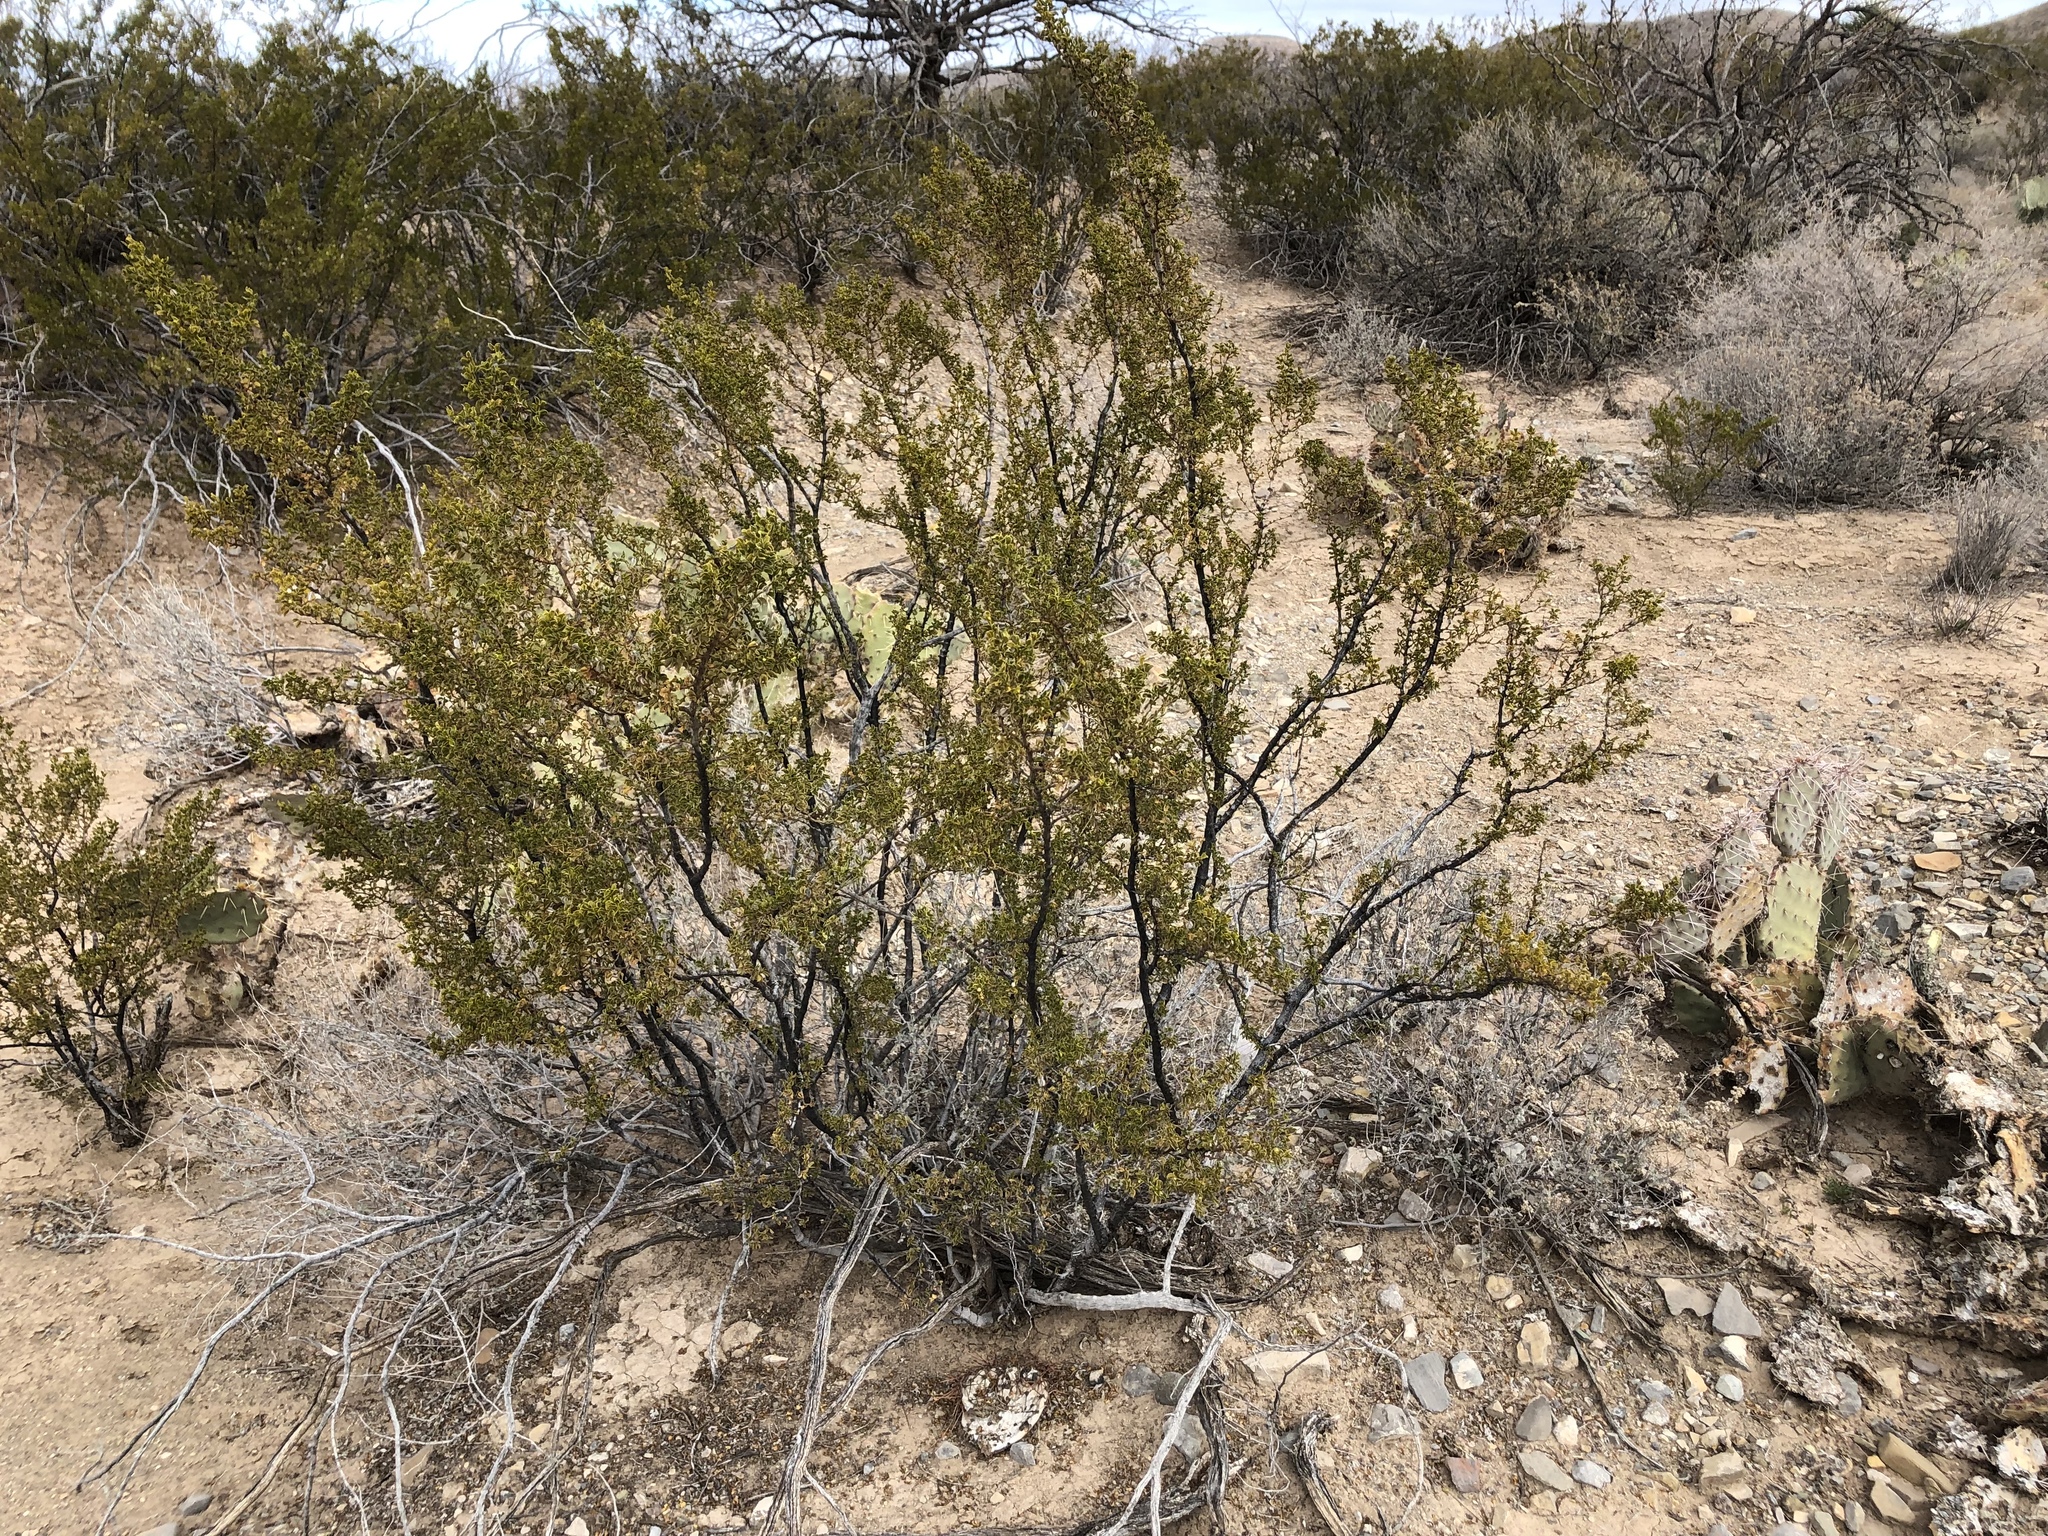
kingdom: Plantae
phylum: Tracheophyta
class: Magnoliopsida
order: Zygophyllales
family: Zygophyllaceae
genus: Larrea
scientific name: Larrea tridentata
